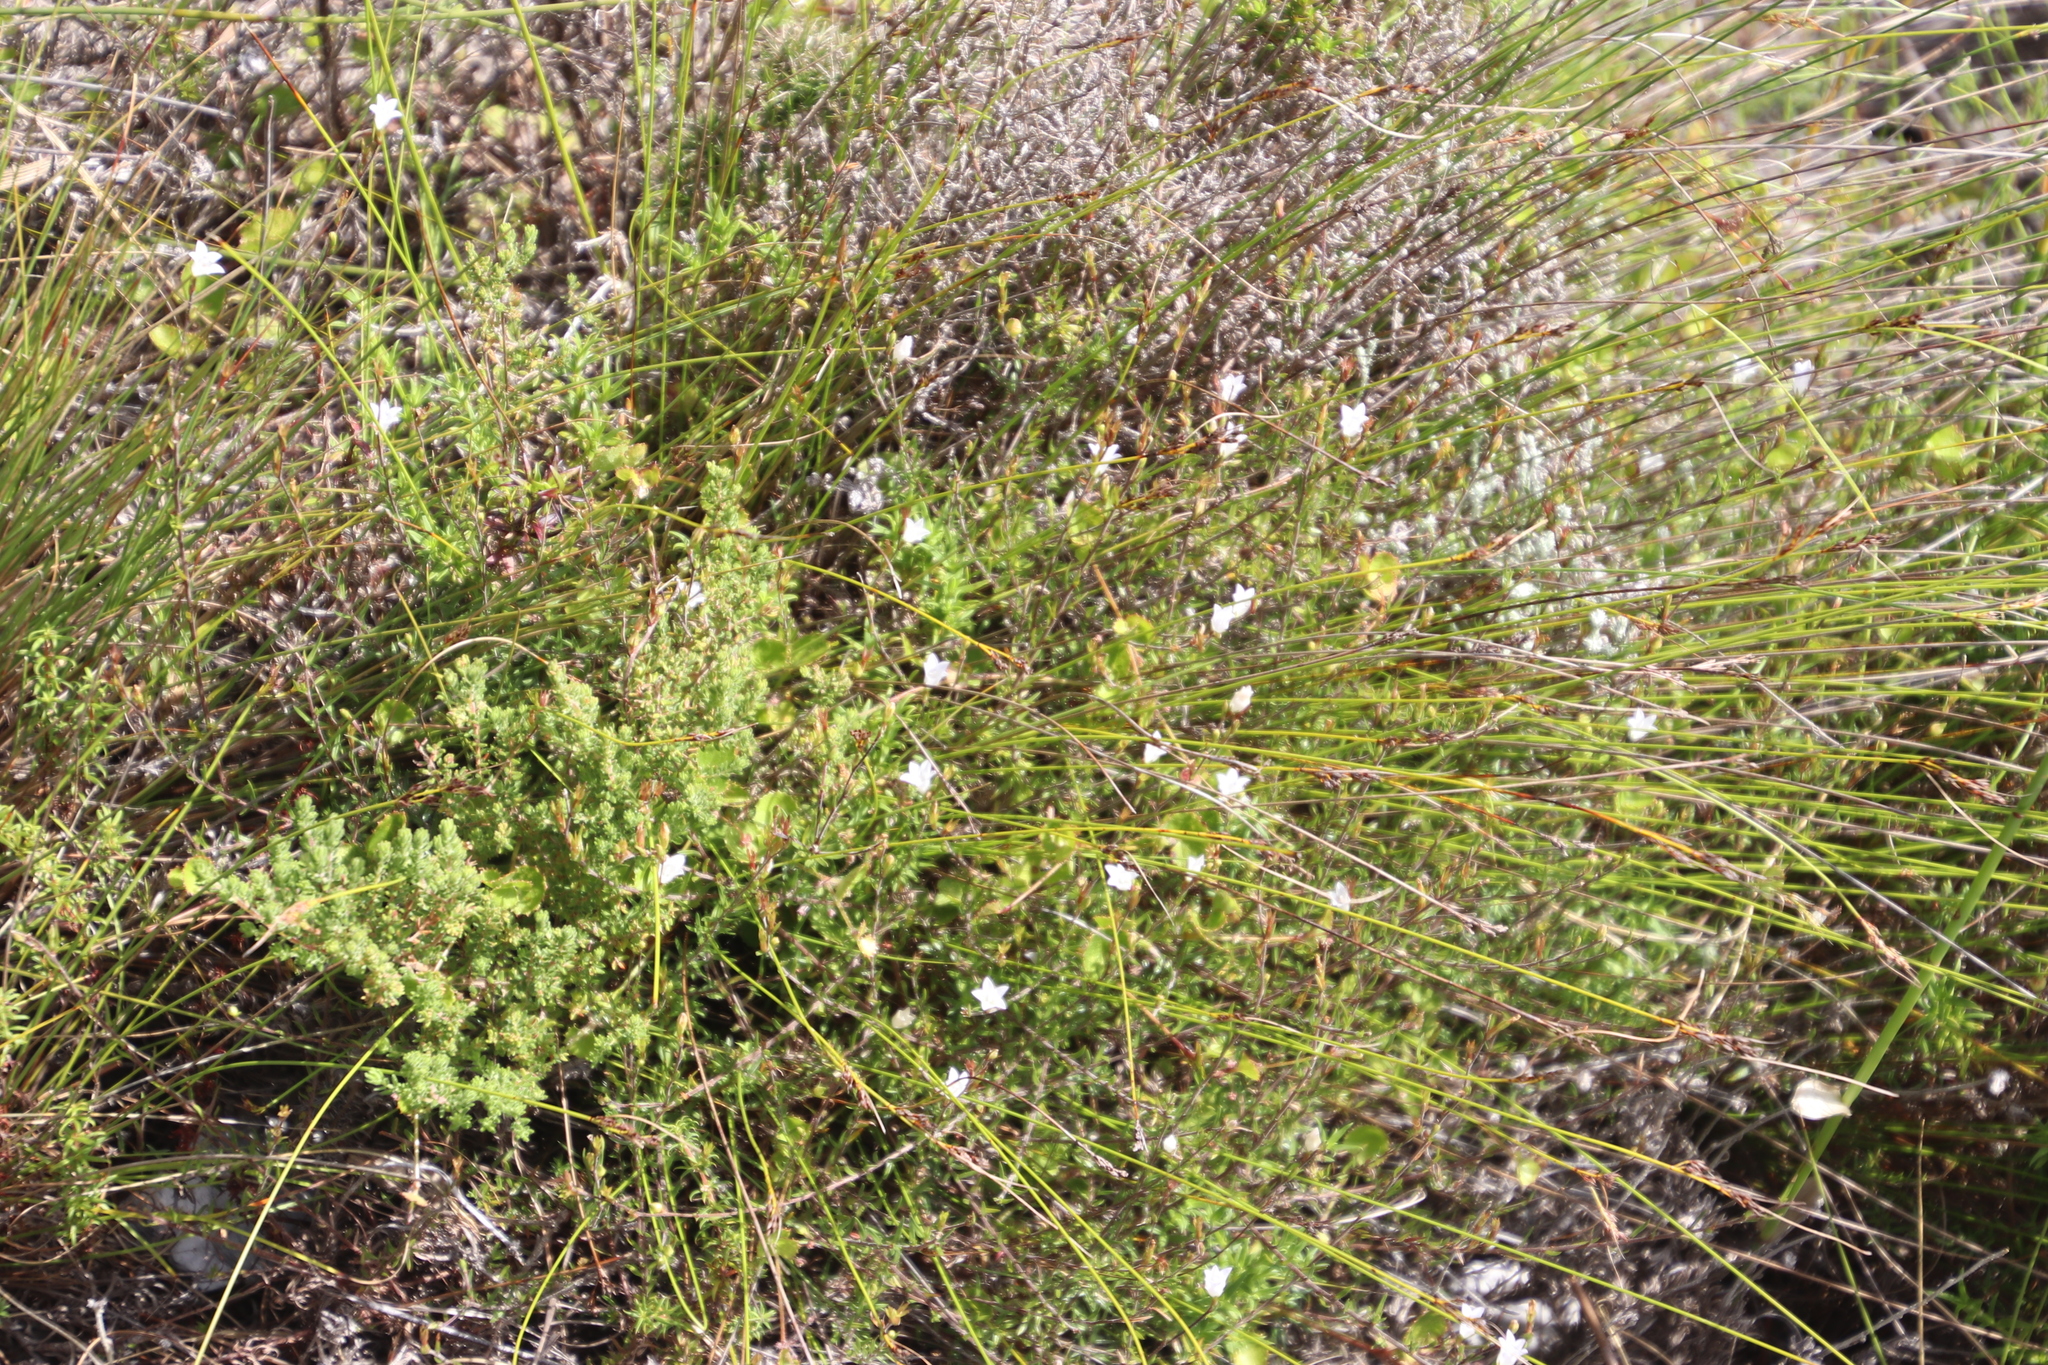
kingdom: Plantae
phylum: Tracheophyta
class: Magnoliopsida
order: Asterales
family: Campanulaceae
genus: Prismatocarpus
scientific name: Prismatocarpus schlechteri
